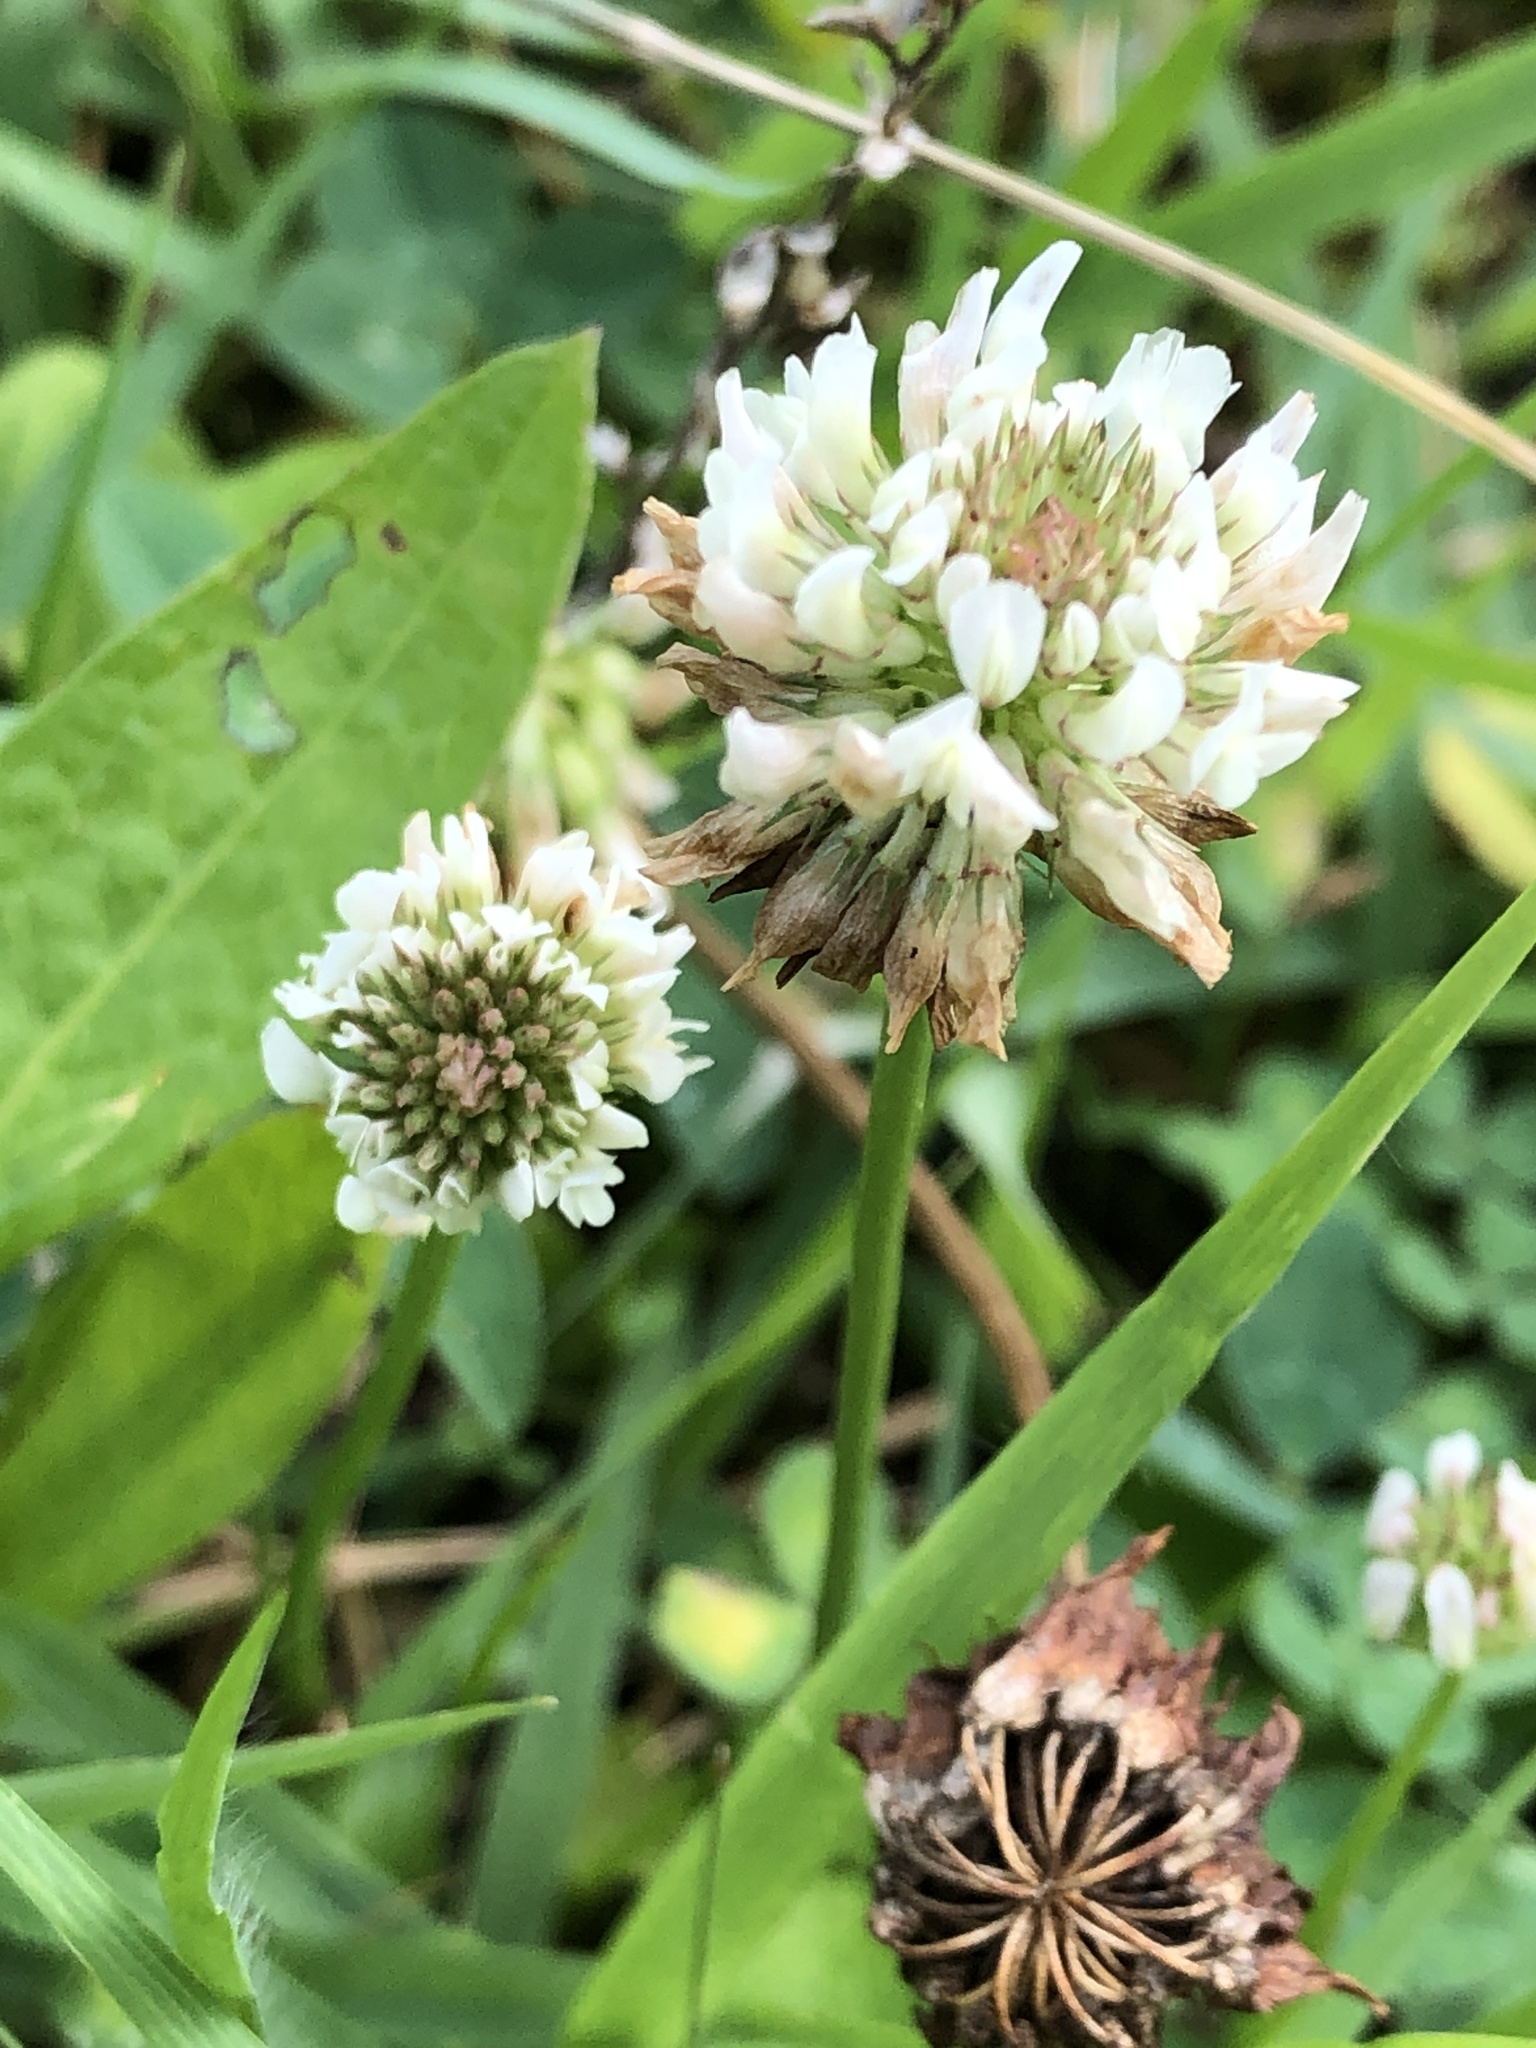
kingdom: Plantae
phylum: Tracheophyta
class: Magnoliopsida
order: Fabales
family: Fabaceae
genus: Trifolium
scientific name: Trifolium repens
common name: White clover
